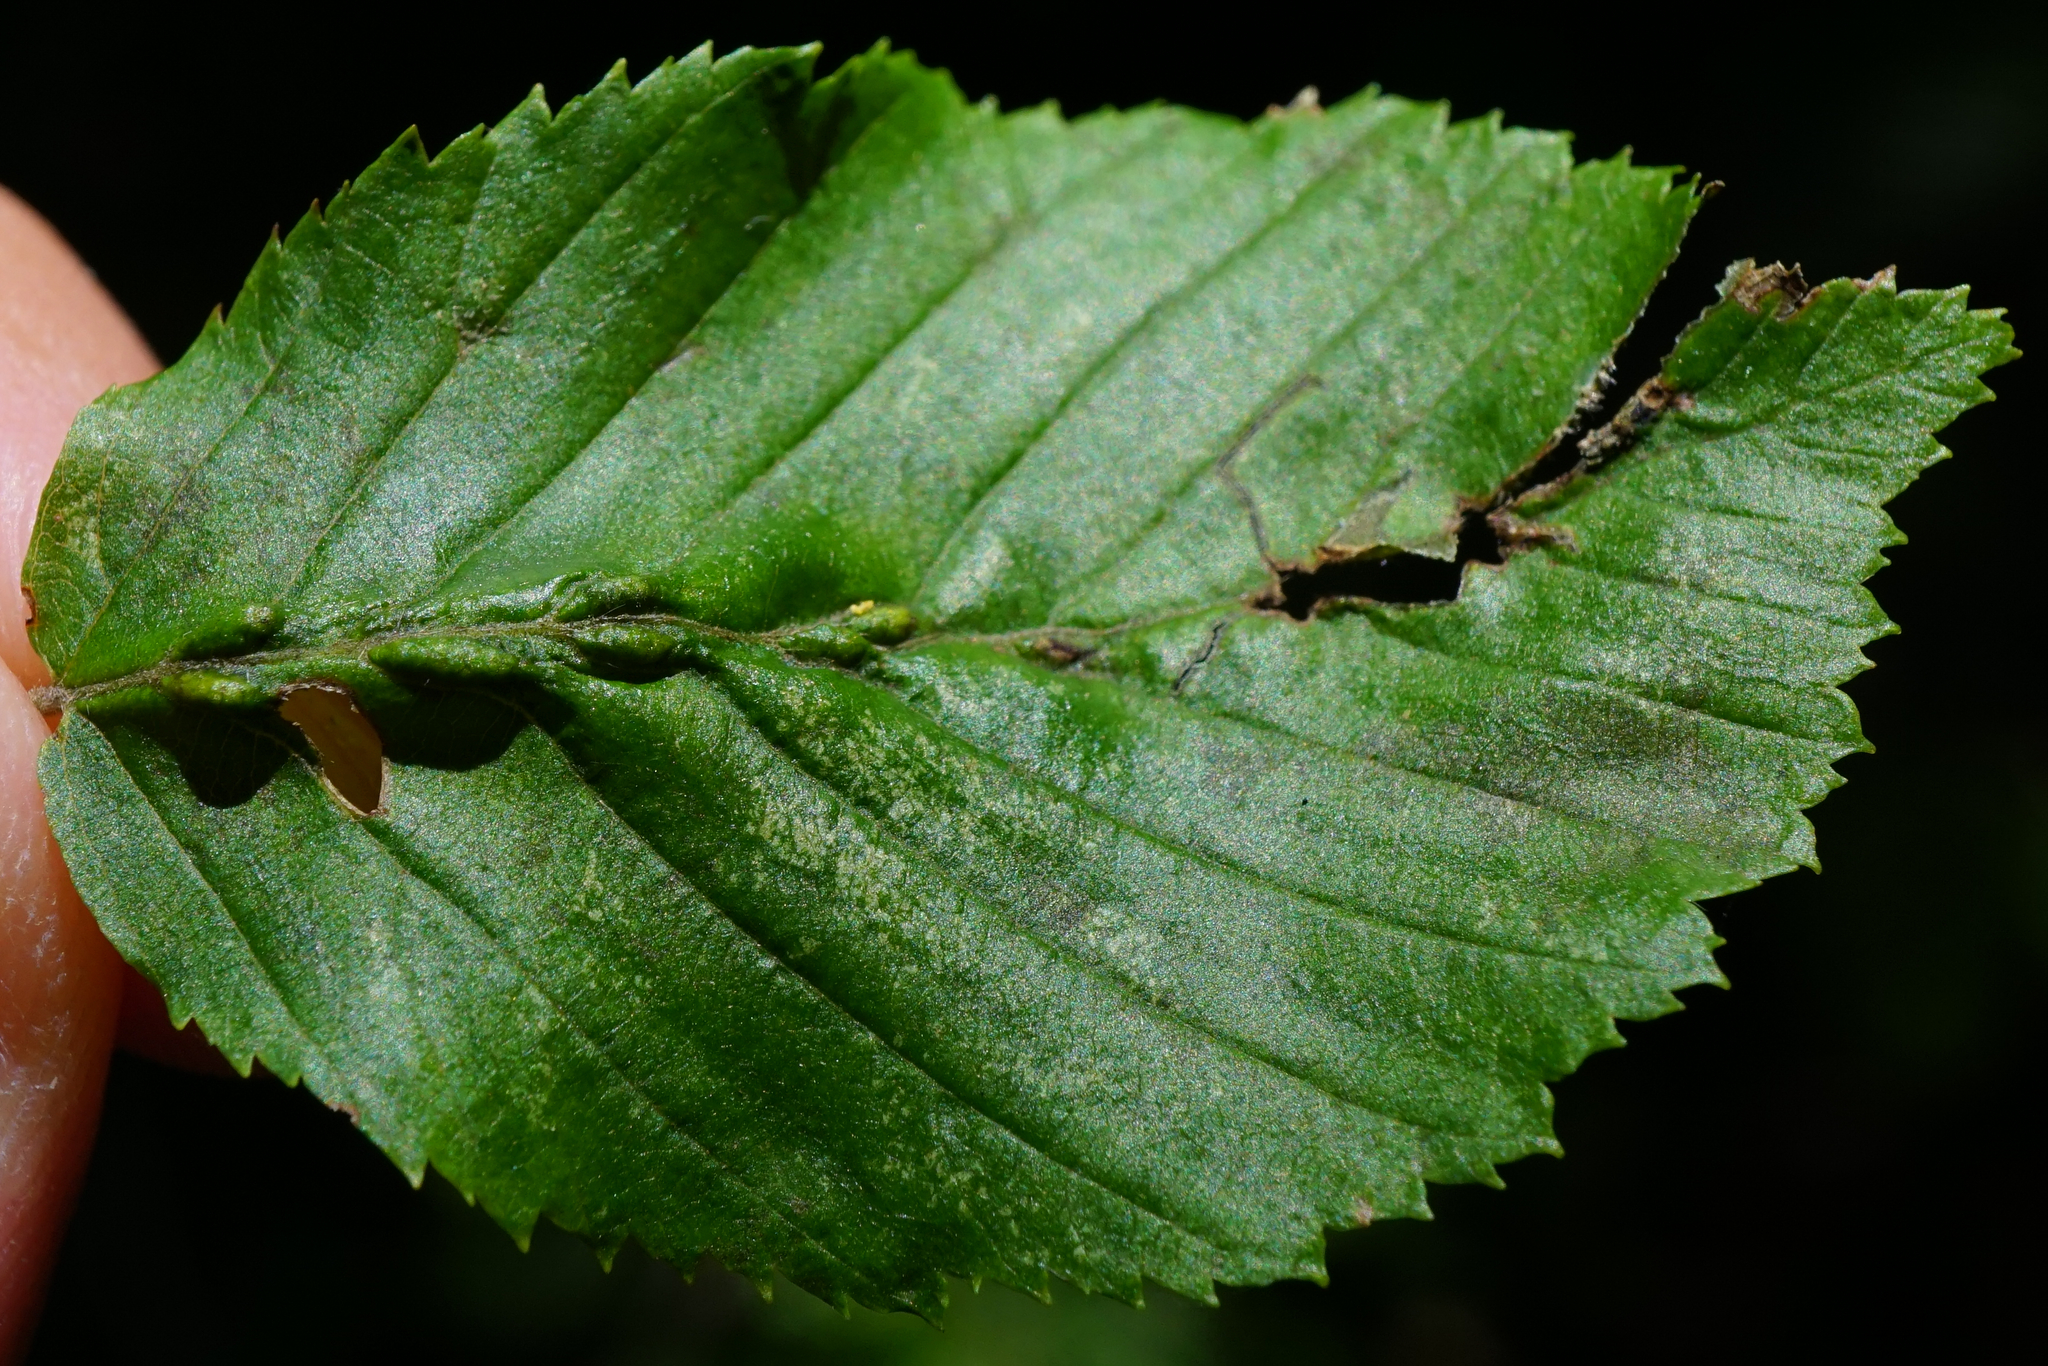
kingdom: Animalia
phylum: Arthropoda
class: Arachnida
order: Trombidiformes
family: Eriophyidae
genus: Aceria
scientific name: Aceria tenellus
